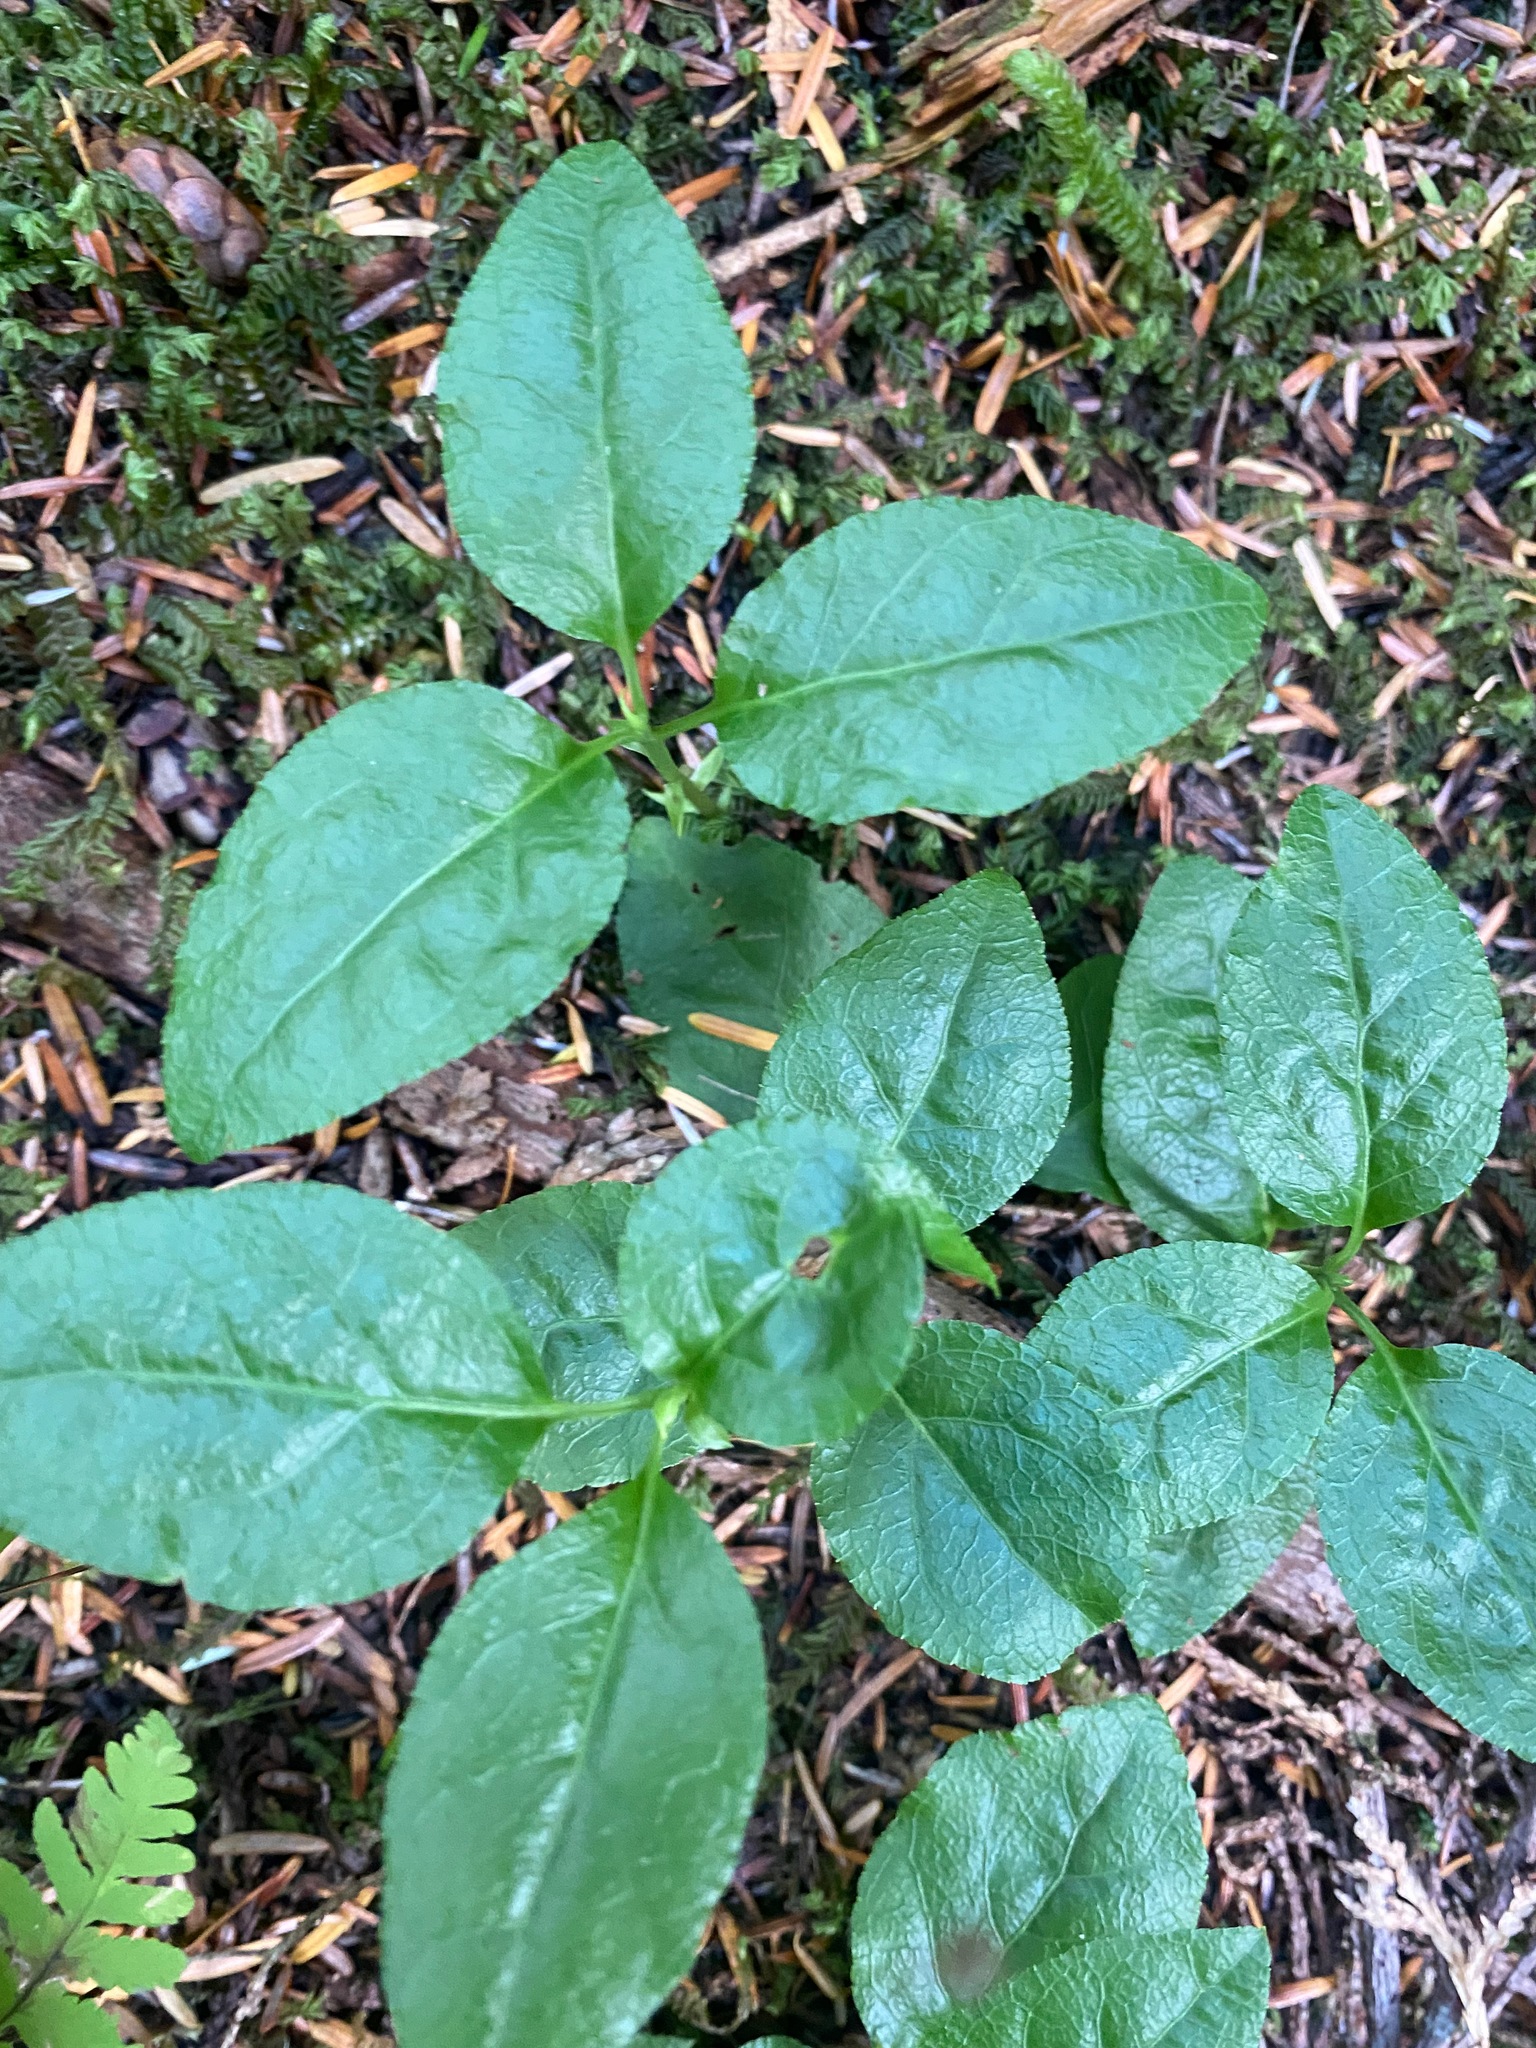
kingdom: Plantae
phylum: Tracheophyta
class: Magnoliopsida
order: Ericales
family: Ericaceae
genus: Orthilia
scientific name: Orthilia secunda
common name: One-sided orthilia
